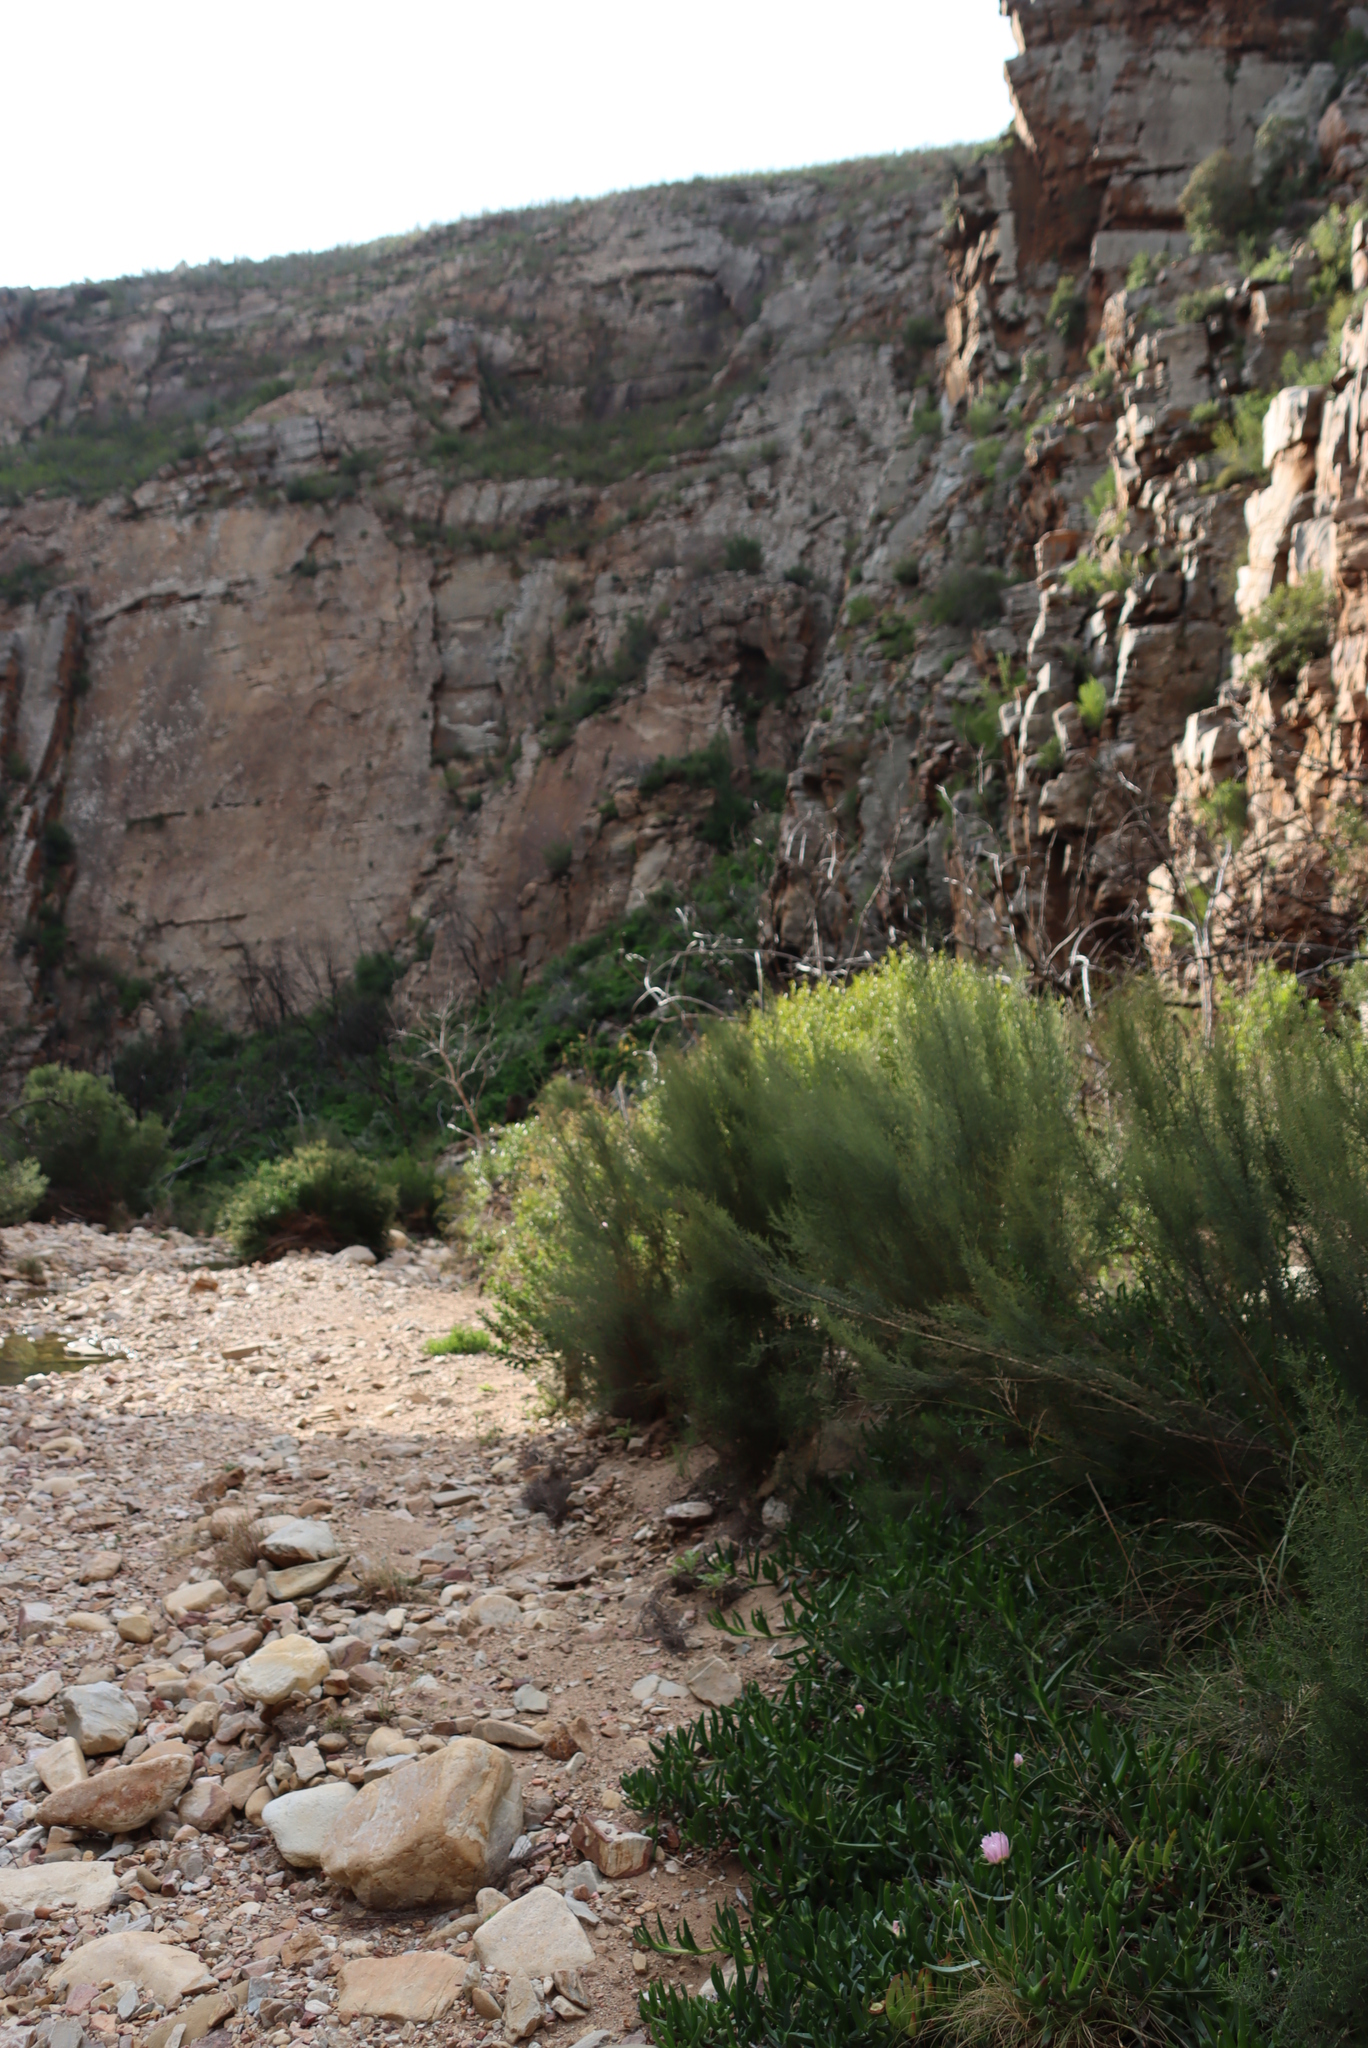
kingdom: Plantae
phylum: Tracheophyta
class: Magnoliopsida
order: Asterales
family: Asteraceae
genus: Dicerothamnus
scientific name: Dicerothamnus rhinocerotis
